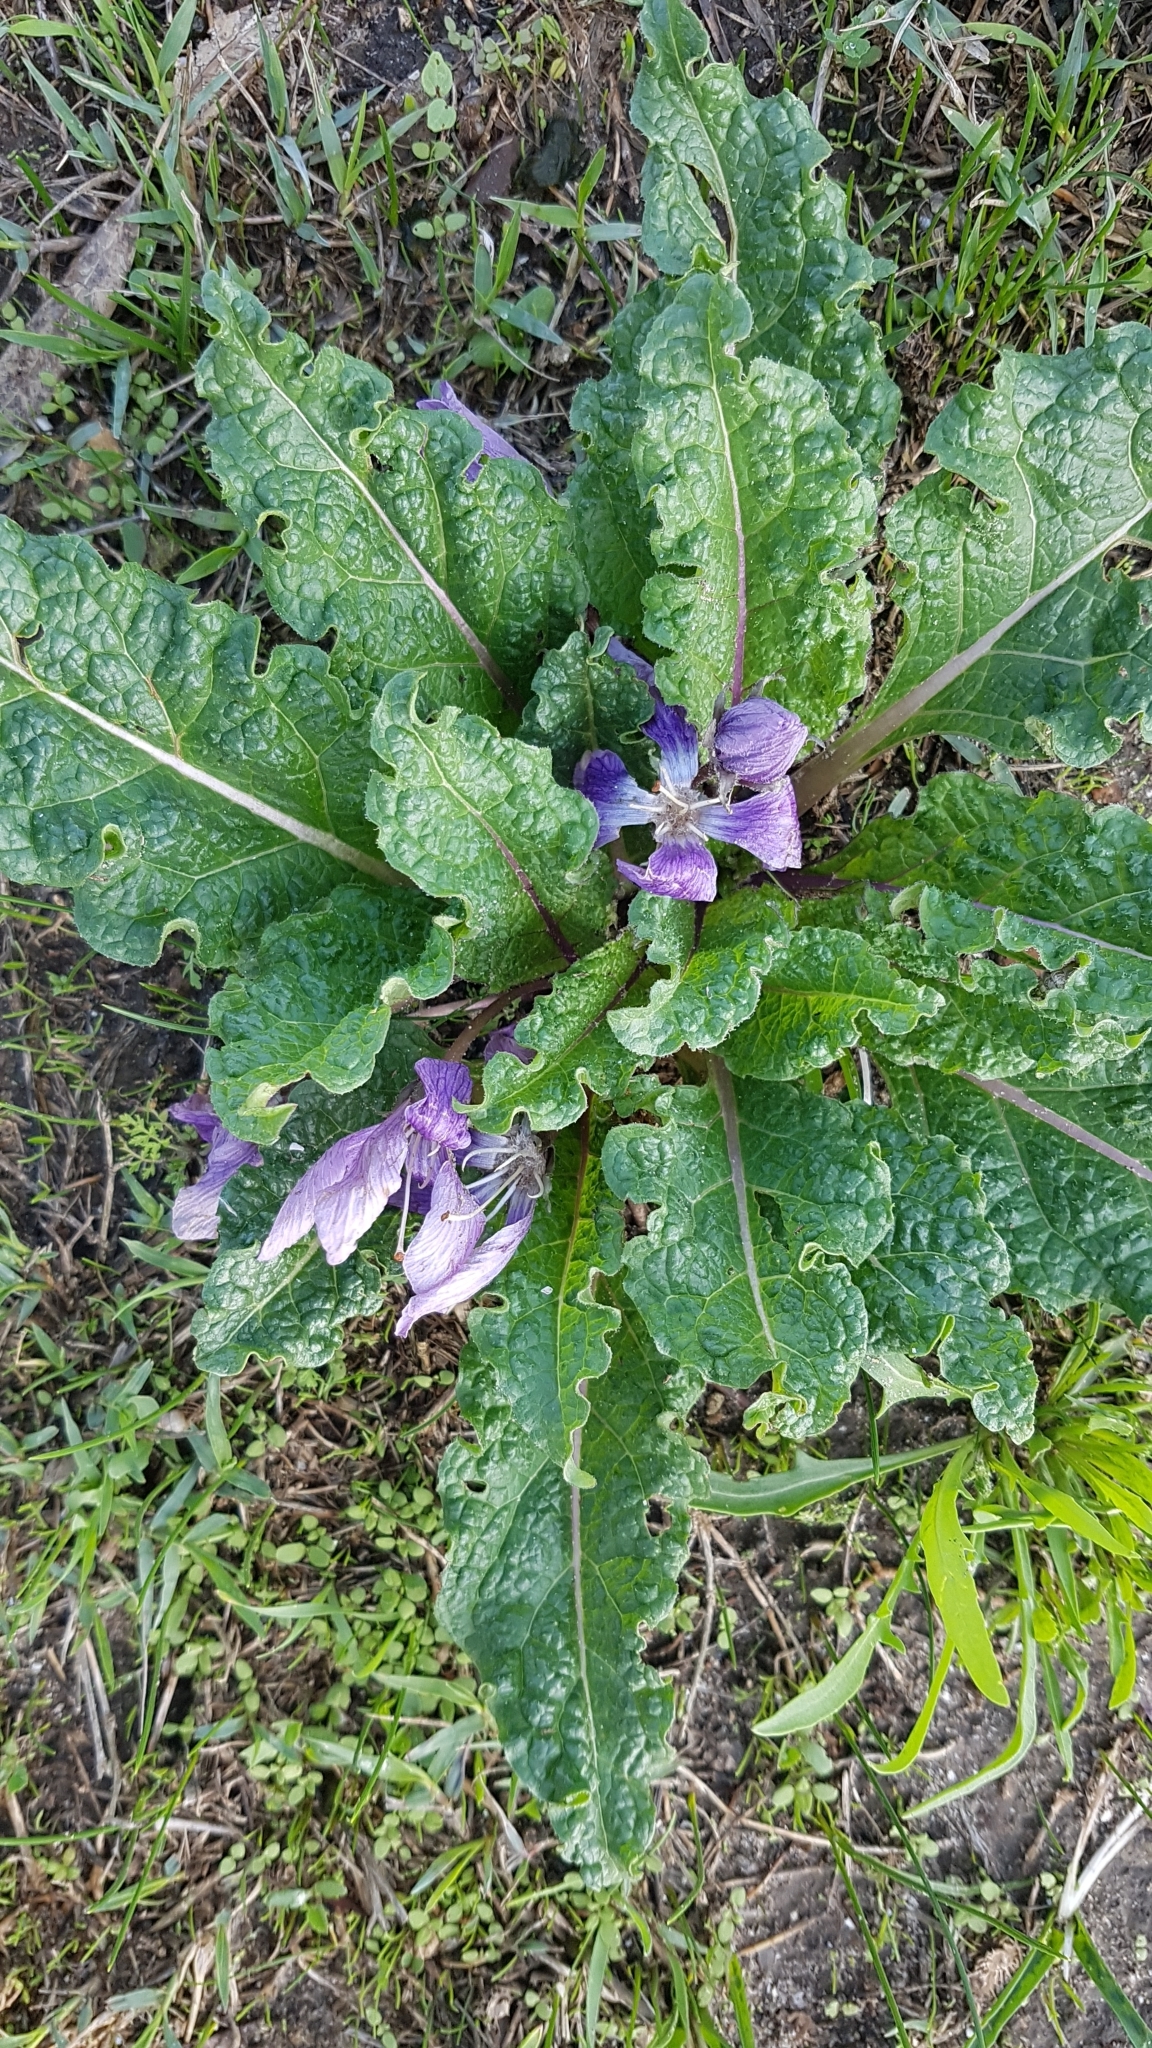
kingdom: Plantae
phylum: Tracheophyta
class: Magnoliopsida
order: Solanales
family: Solanaceae
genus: Mandragora
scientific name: Mandragora officinarum
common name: Mandrake
